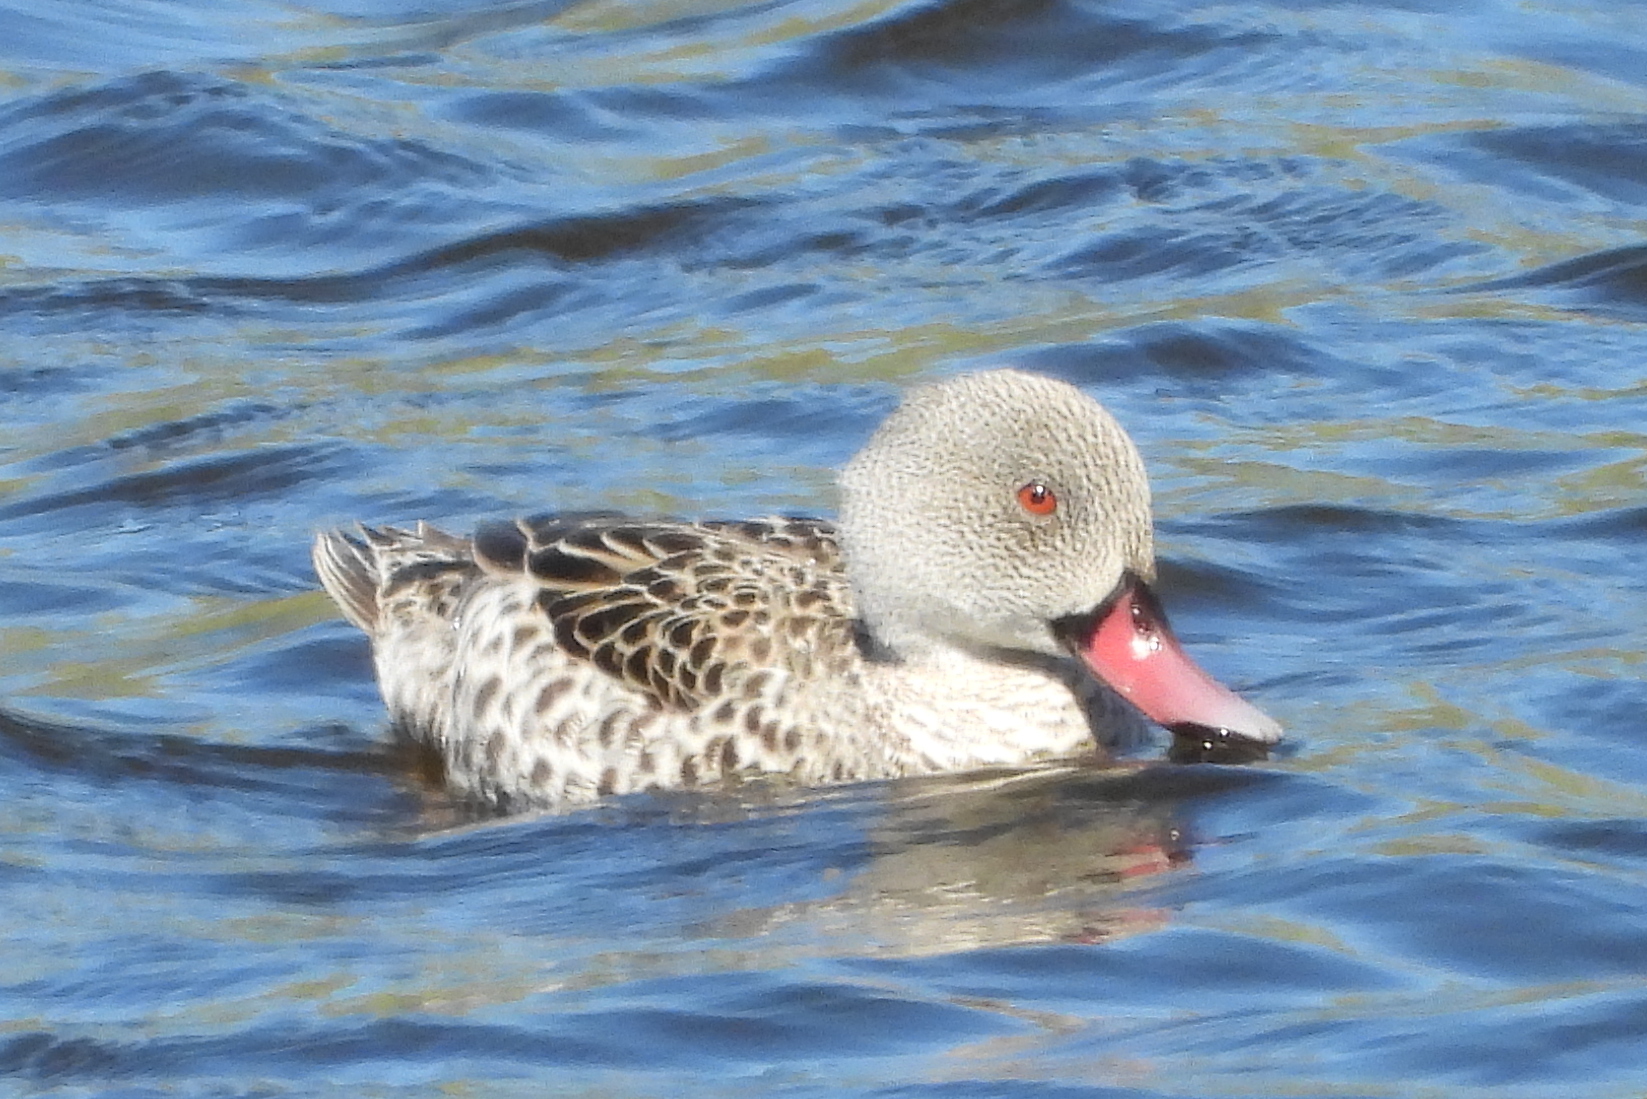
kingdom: Animalia
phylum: Chordata
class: Aves
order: Anseriformes
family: Anatidae
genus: Anas
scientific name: Anas capensis
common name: Cape teal
